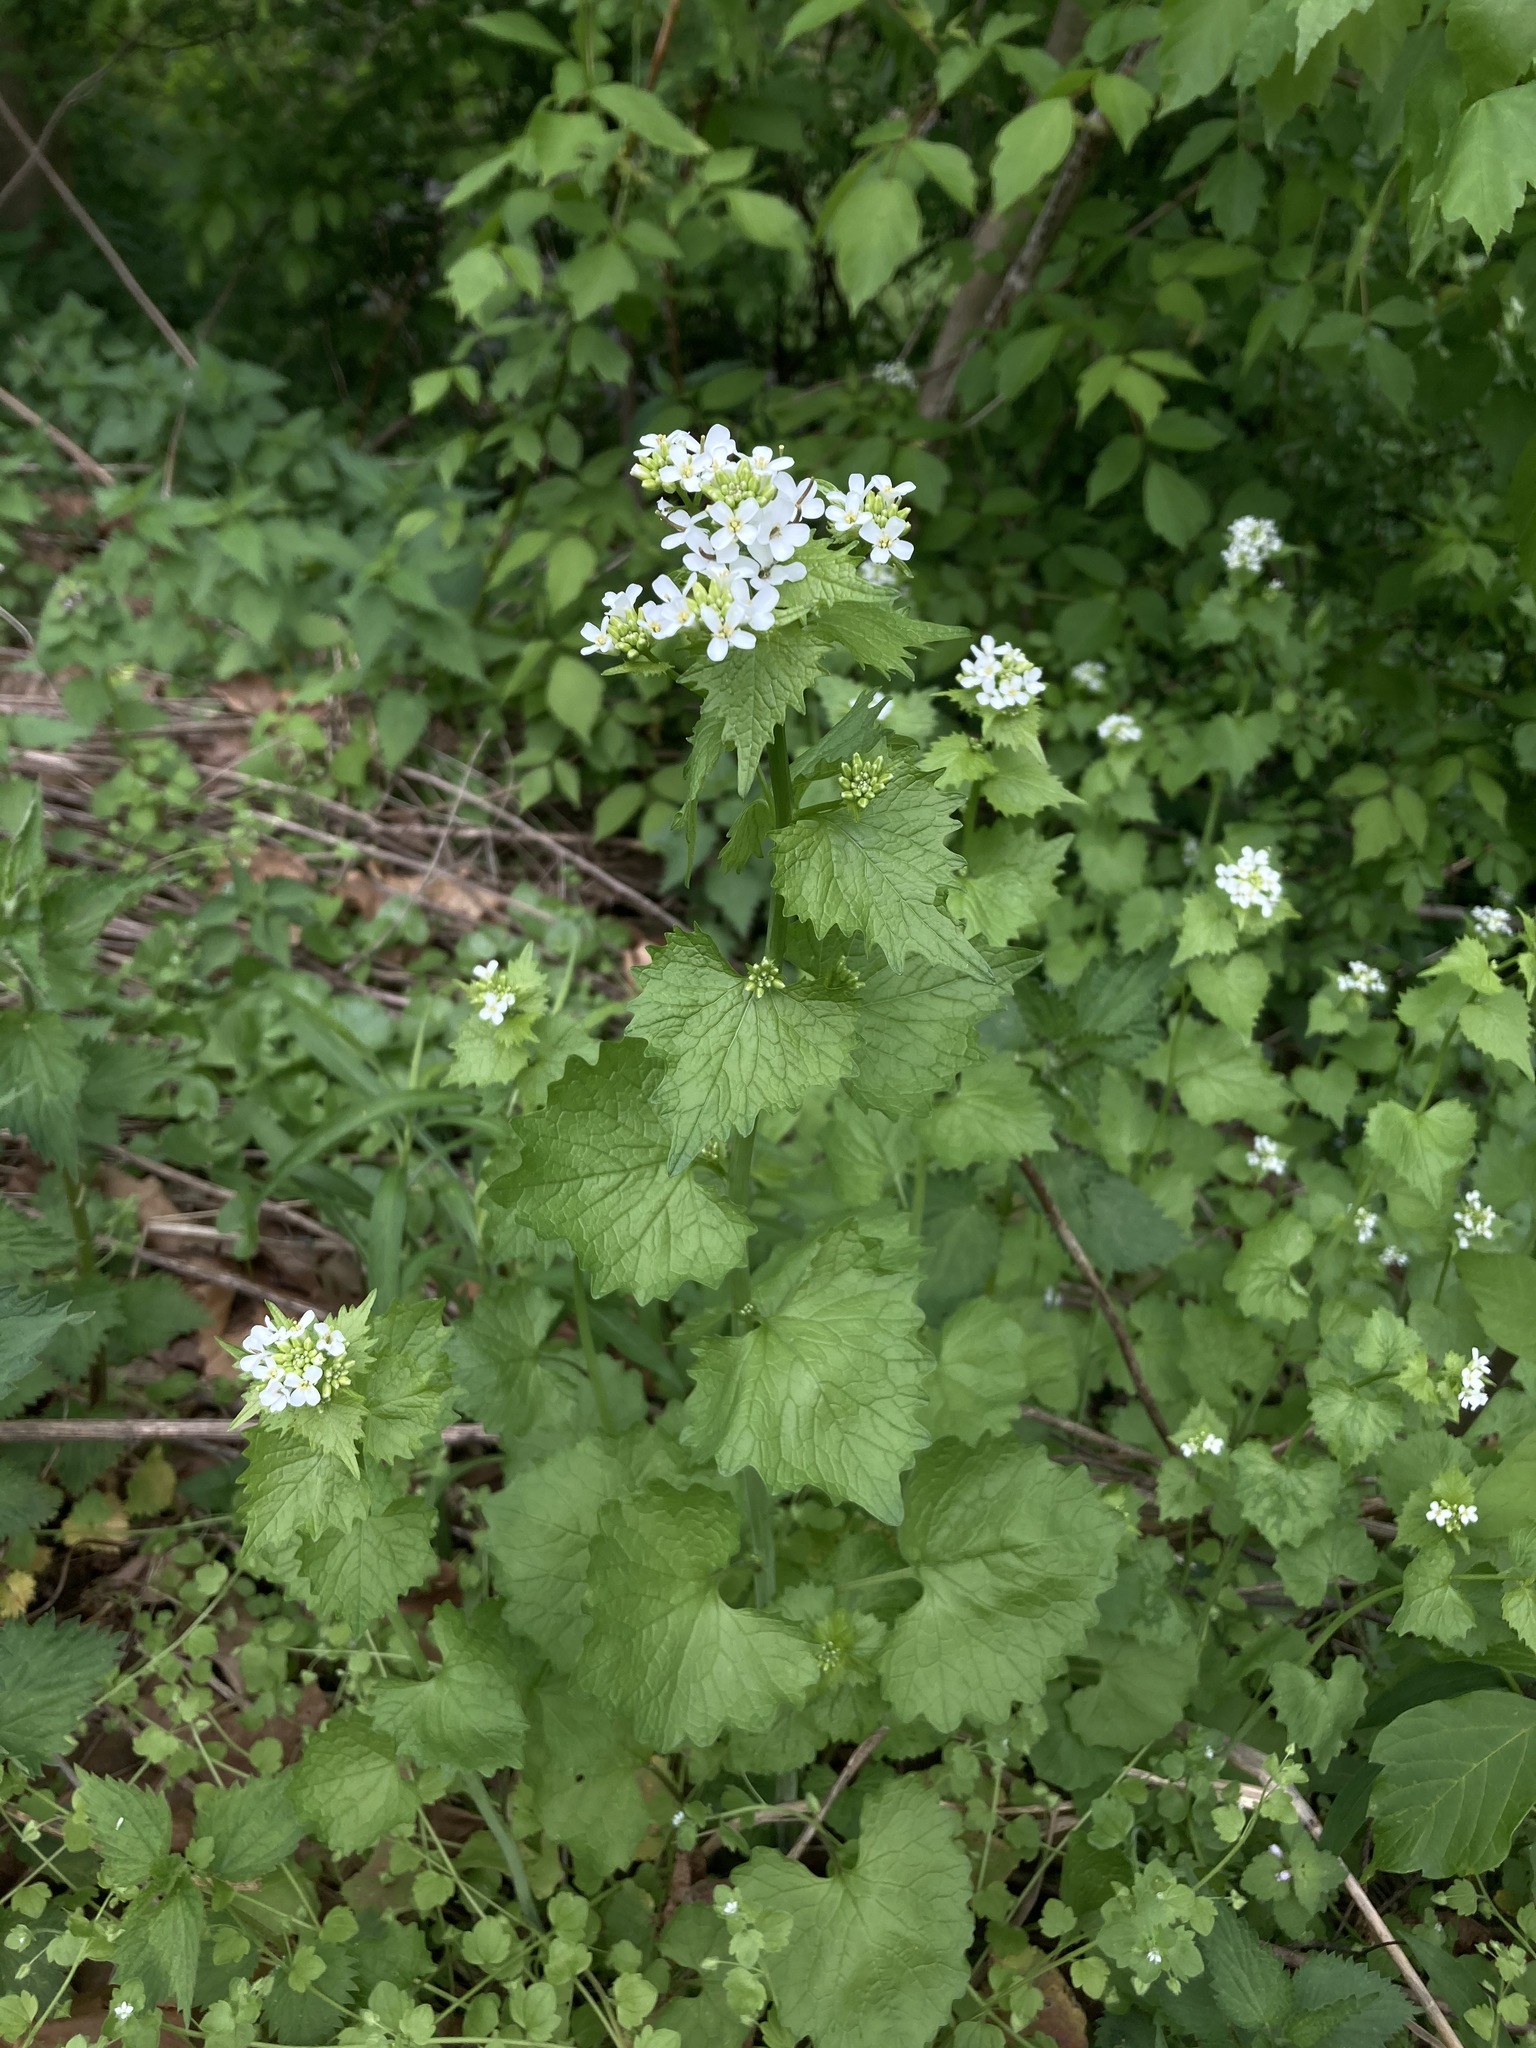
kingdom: Plantae
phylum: Tracheophyta
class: Magnoliopsida
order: Brassicales
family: Brassicaceae
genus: Alliaria
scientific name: Alliaria petiolata
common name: Garlic mustard
